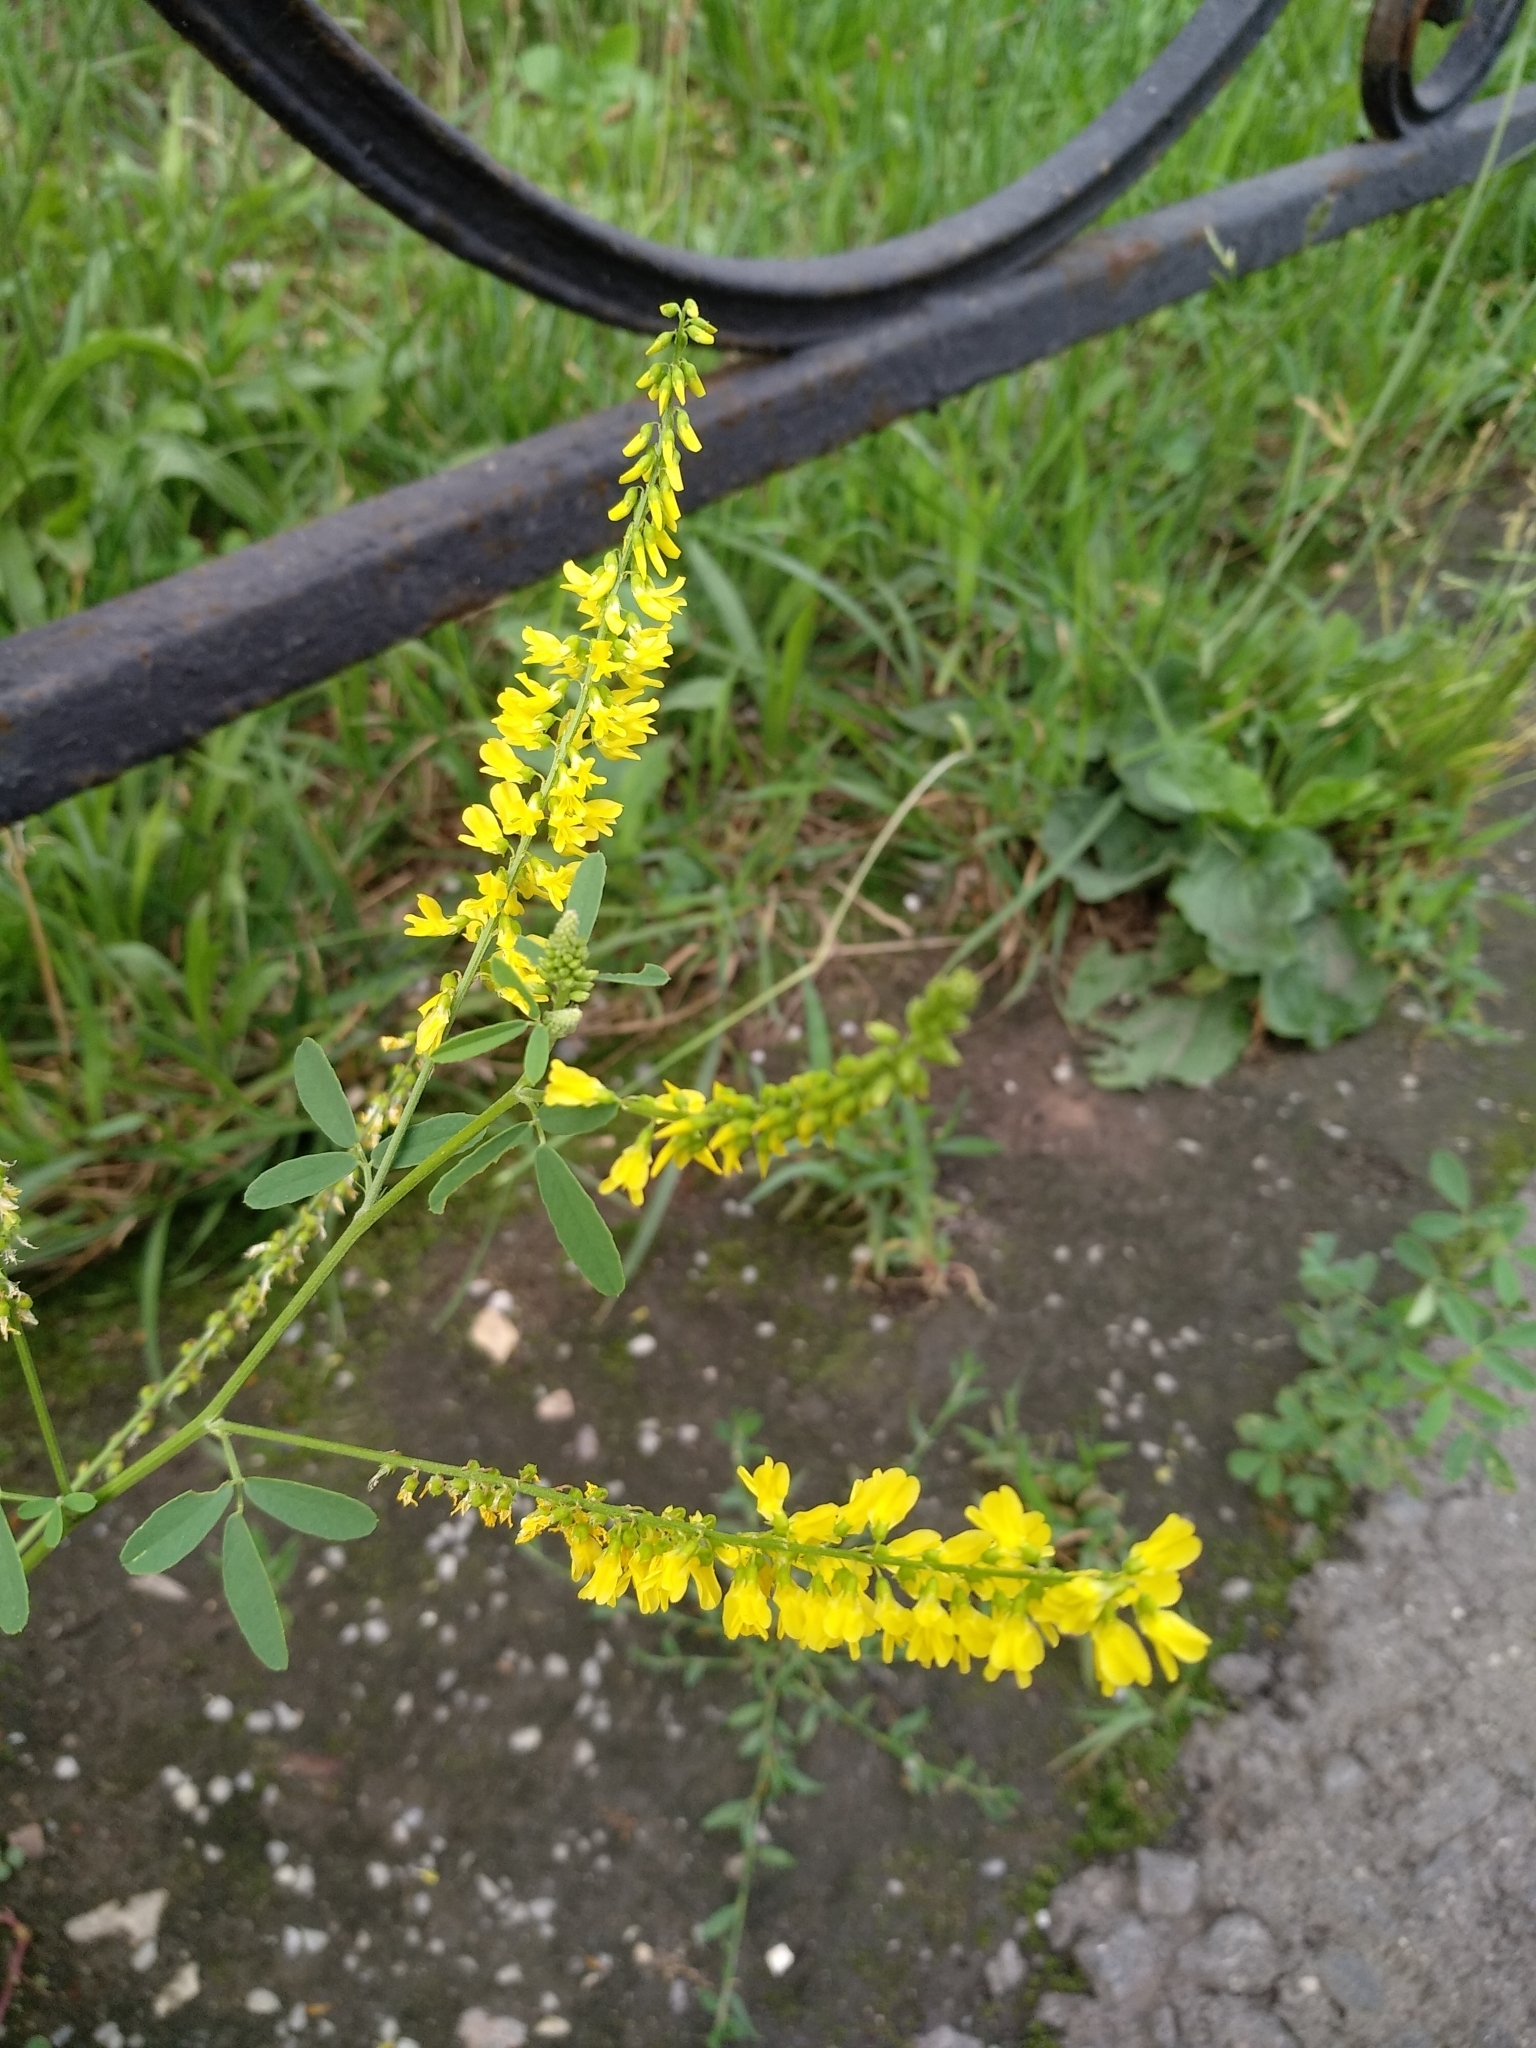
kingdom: Plantae
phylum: Tracheophyta
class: Magnoliopsida
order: Fabales
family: Fabaceae
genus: Melilotus
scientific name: Melilotus officinalis
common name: Sweetclover
